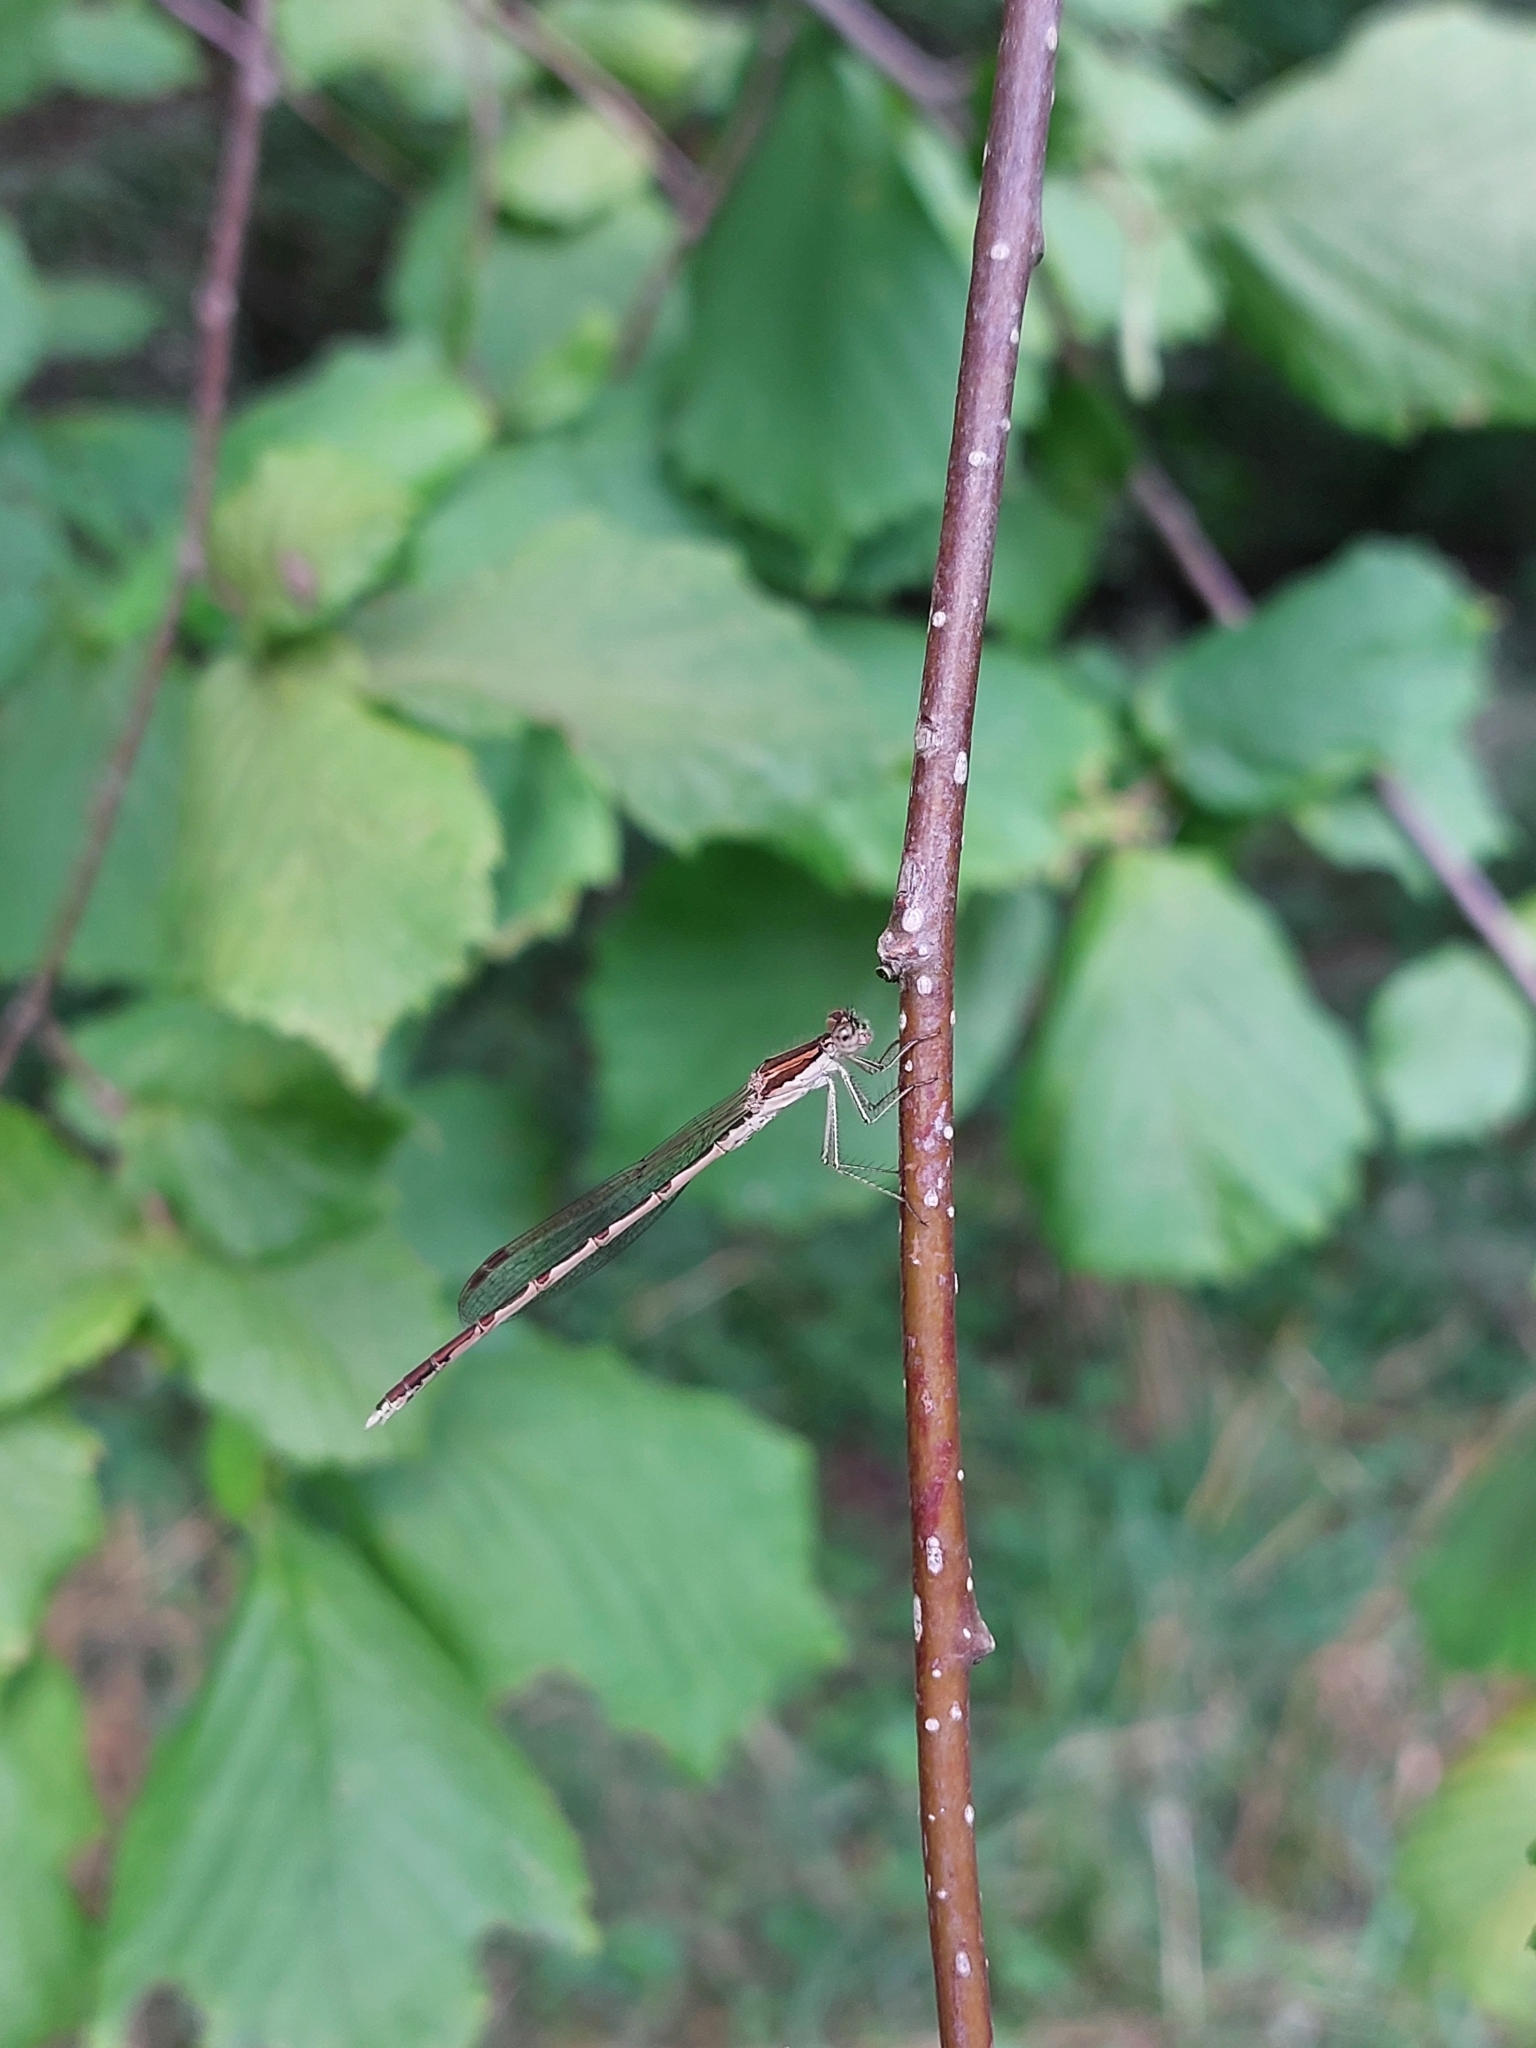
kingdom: Animalia
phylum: Arthropoda
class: Insecta
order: Odonata
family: Lestidae
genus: Sympecma
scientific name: Sympecma fusca
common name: Common winter damsel
